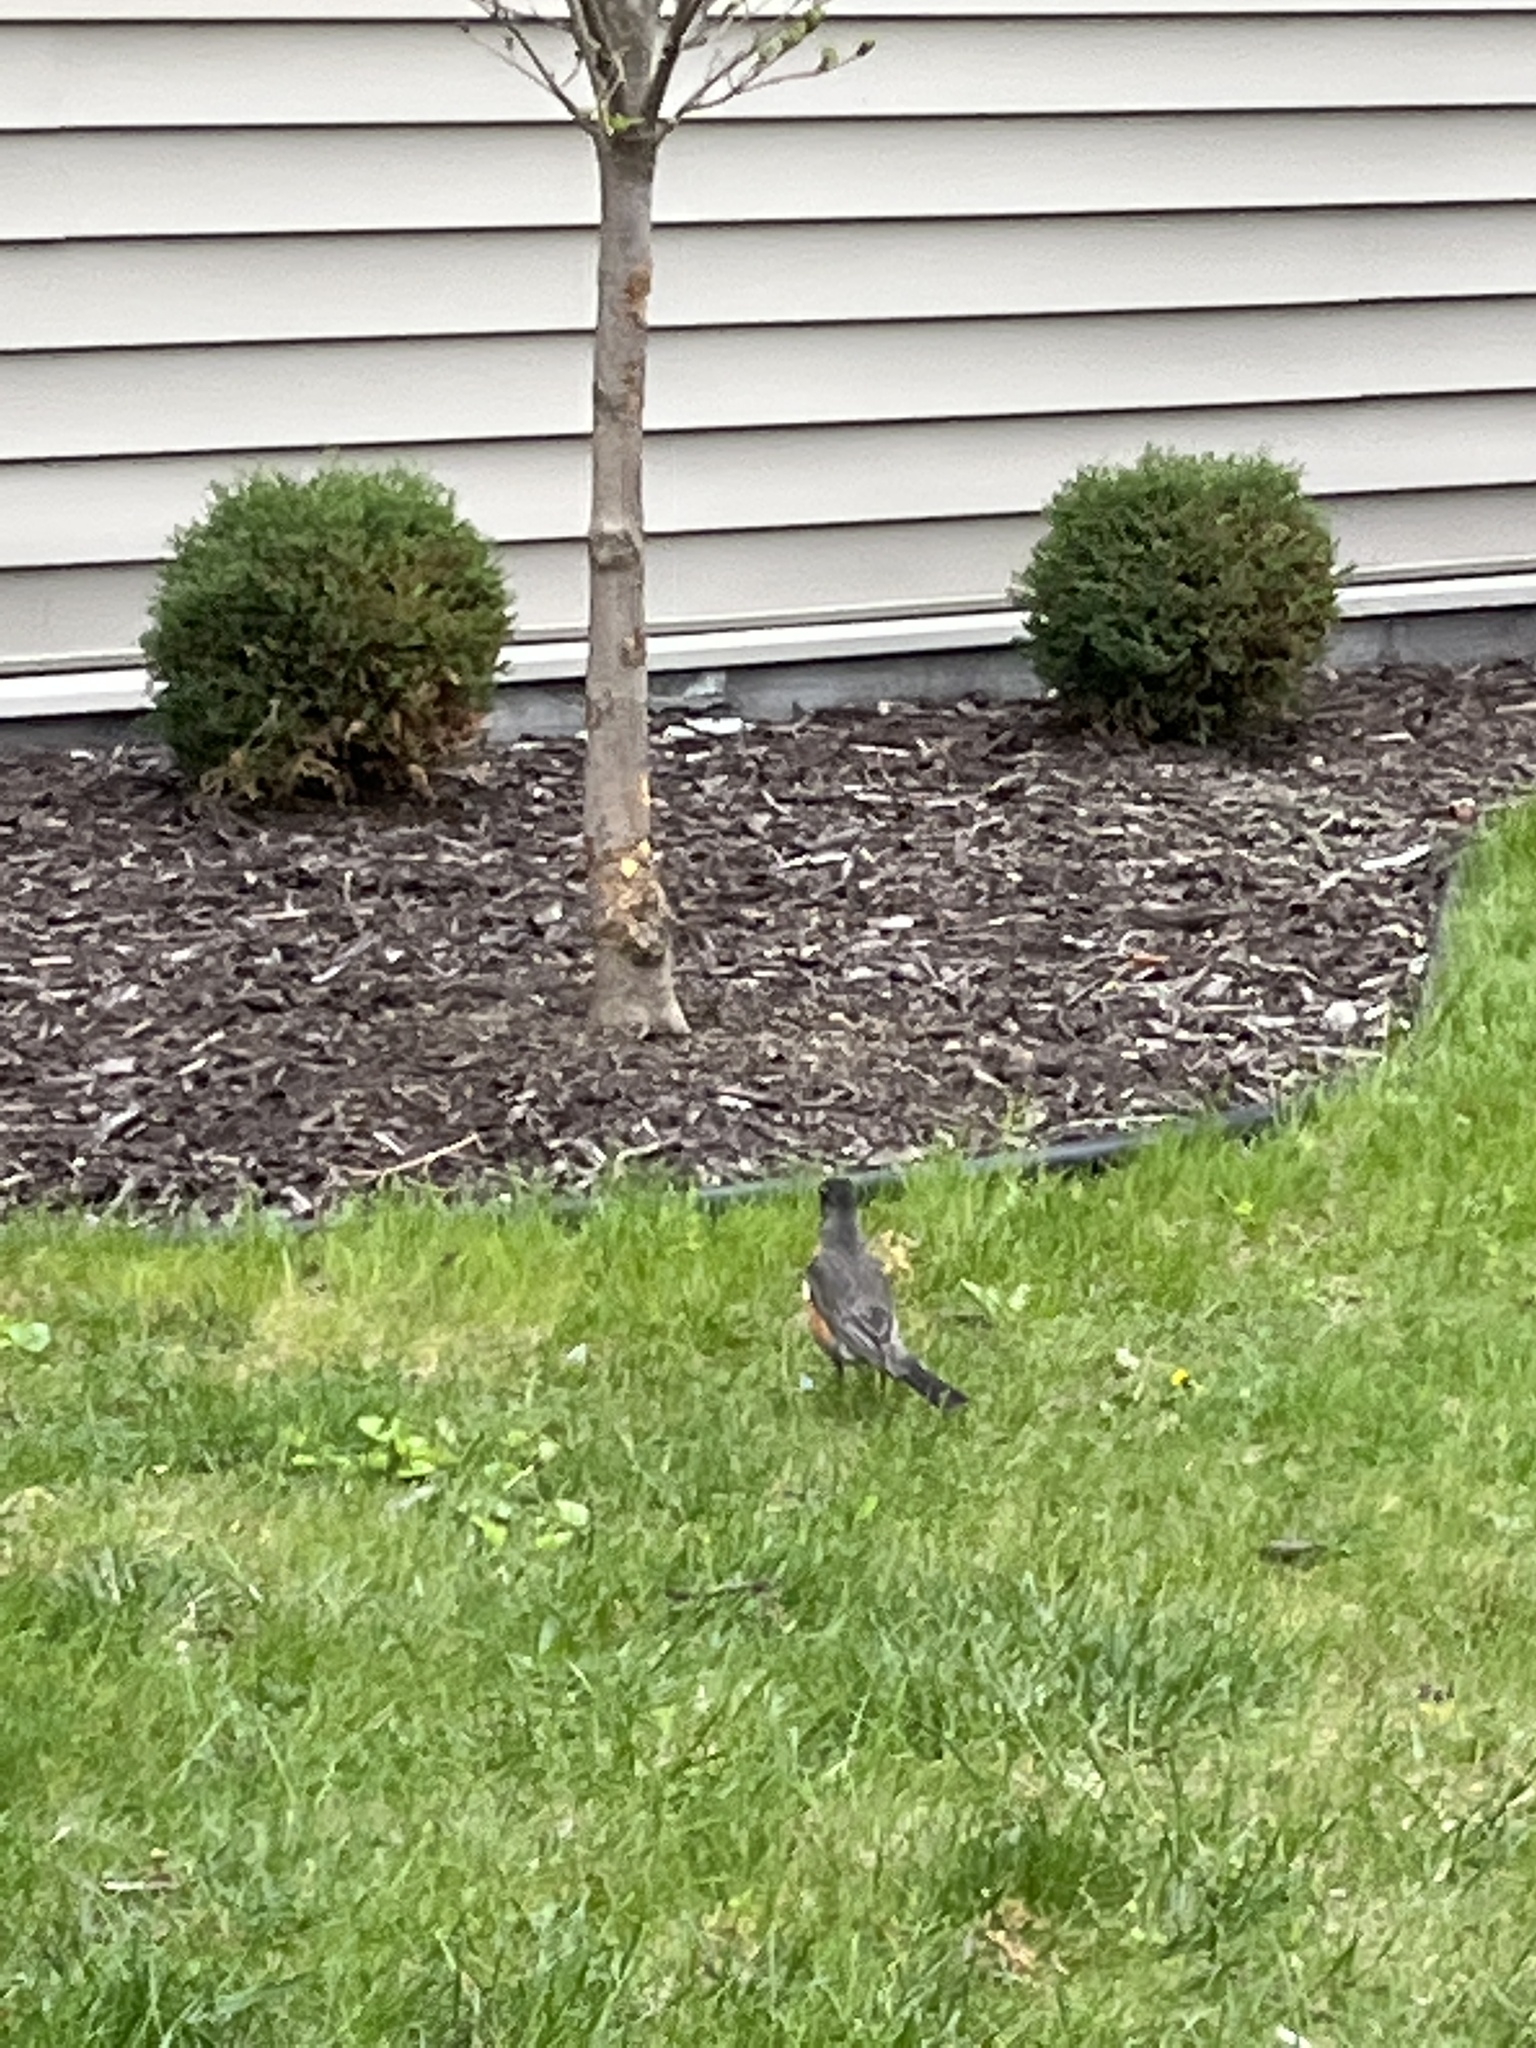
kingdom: Animalia
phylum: Chordata
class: Aves
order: Passeriformes
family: Turdidae
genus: Turdus
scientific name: Turdus migratorius
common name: American robin
